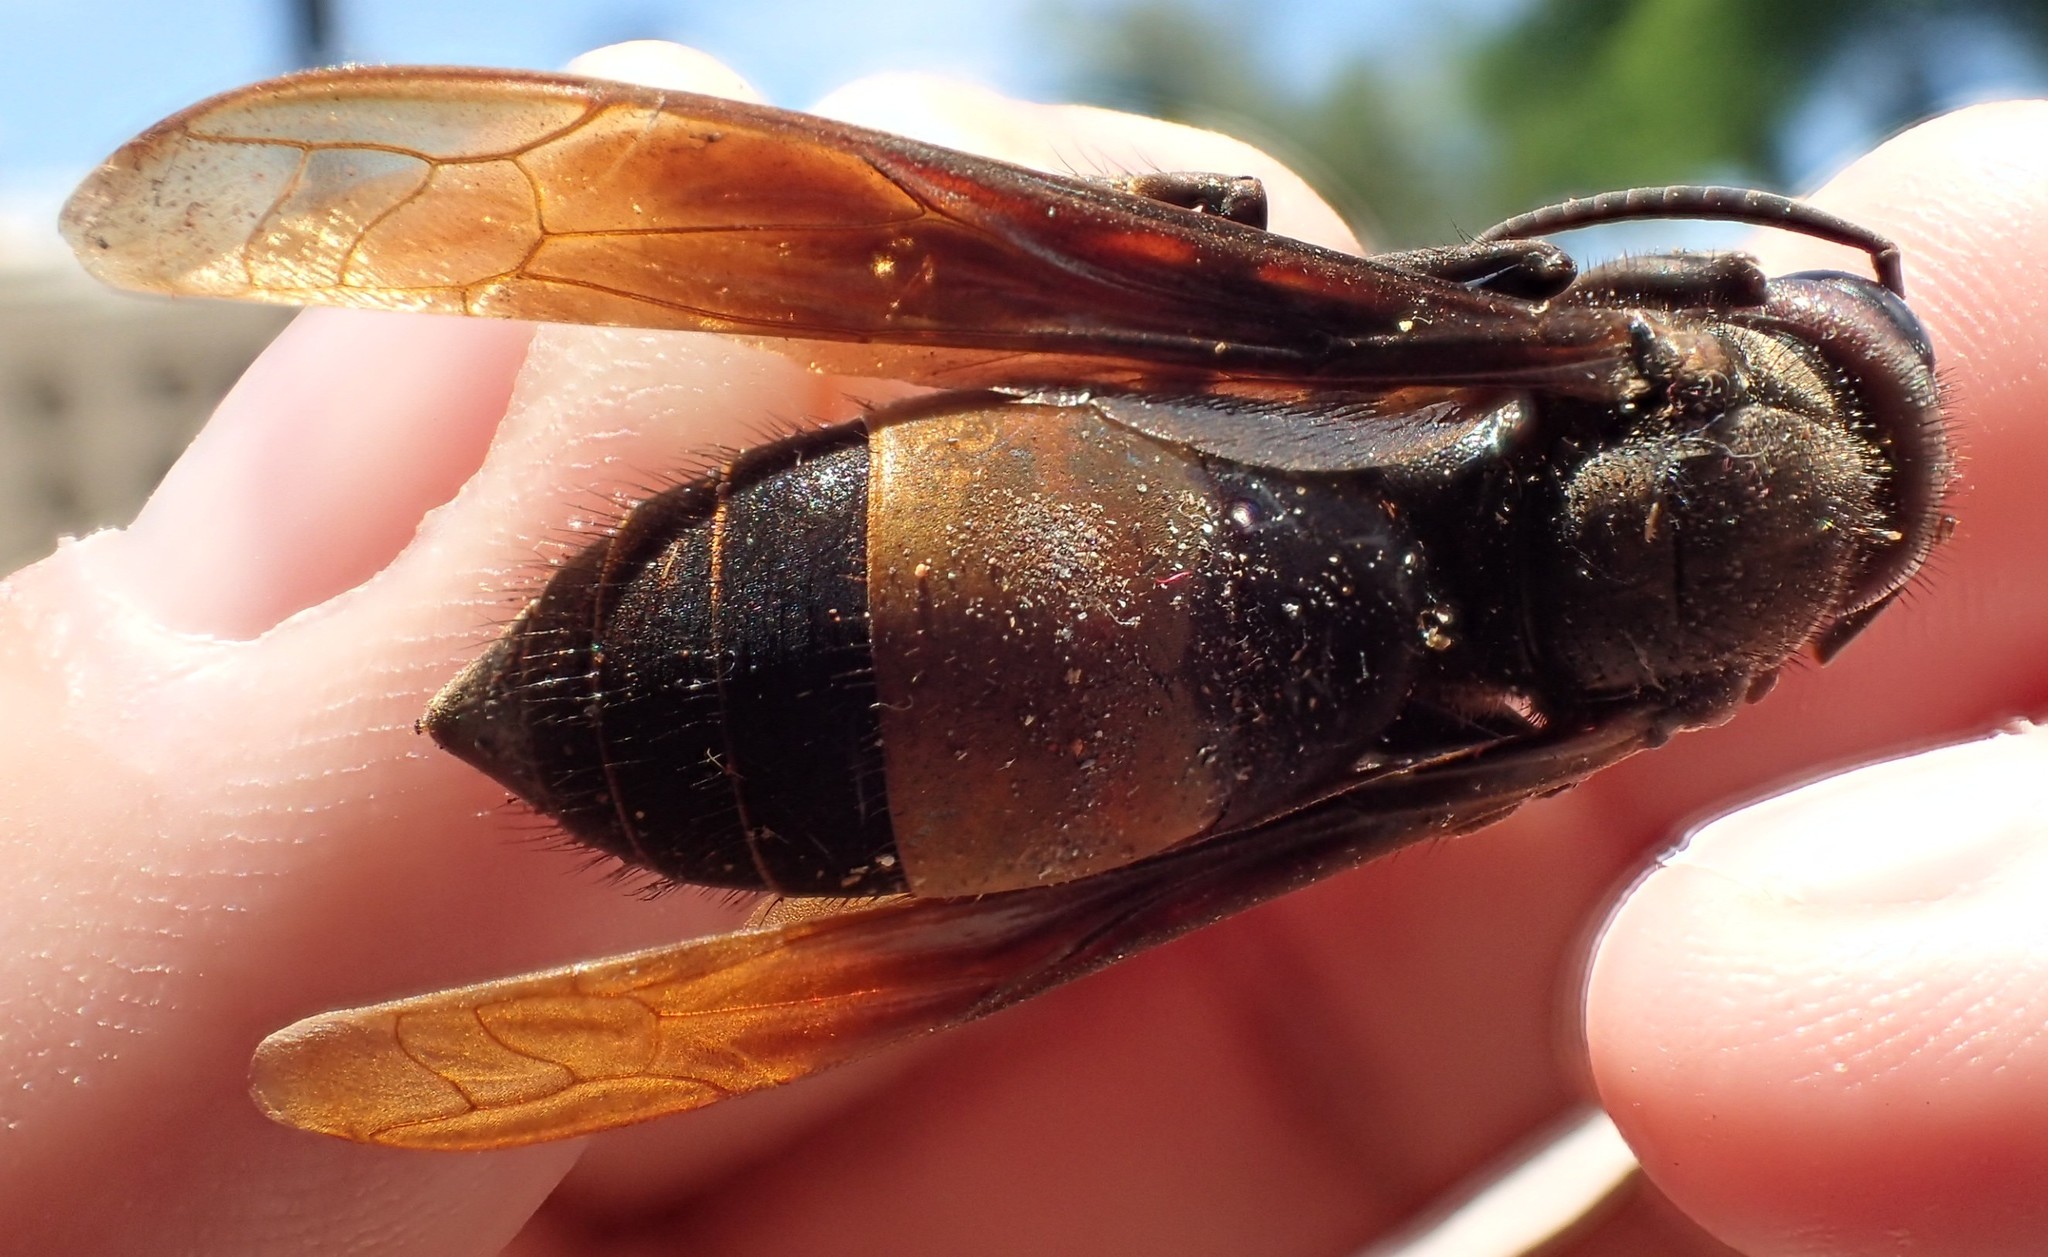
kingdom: Animalia
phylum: Arthropoda
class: Insecta
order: Hymenoptera
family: Vespidae
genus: Vespa
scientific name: Vespa tropica
